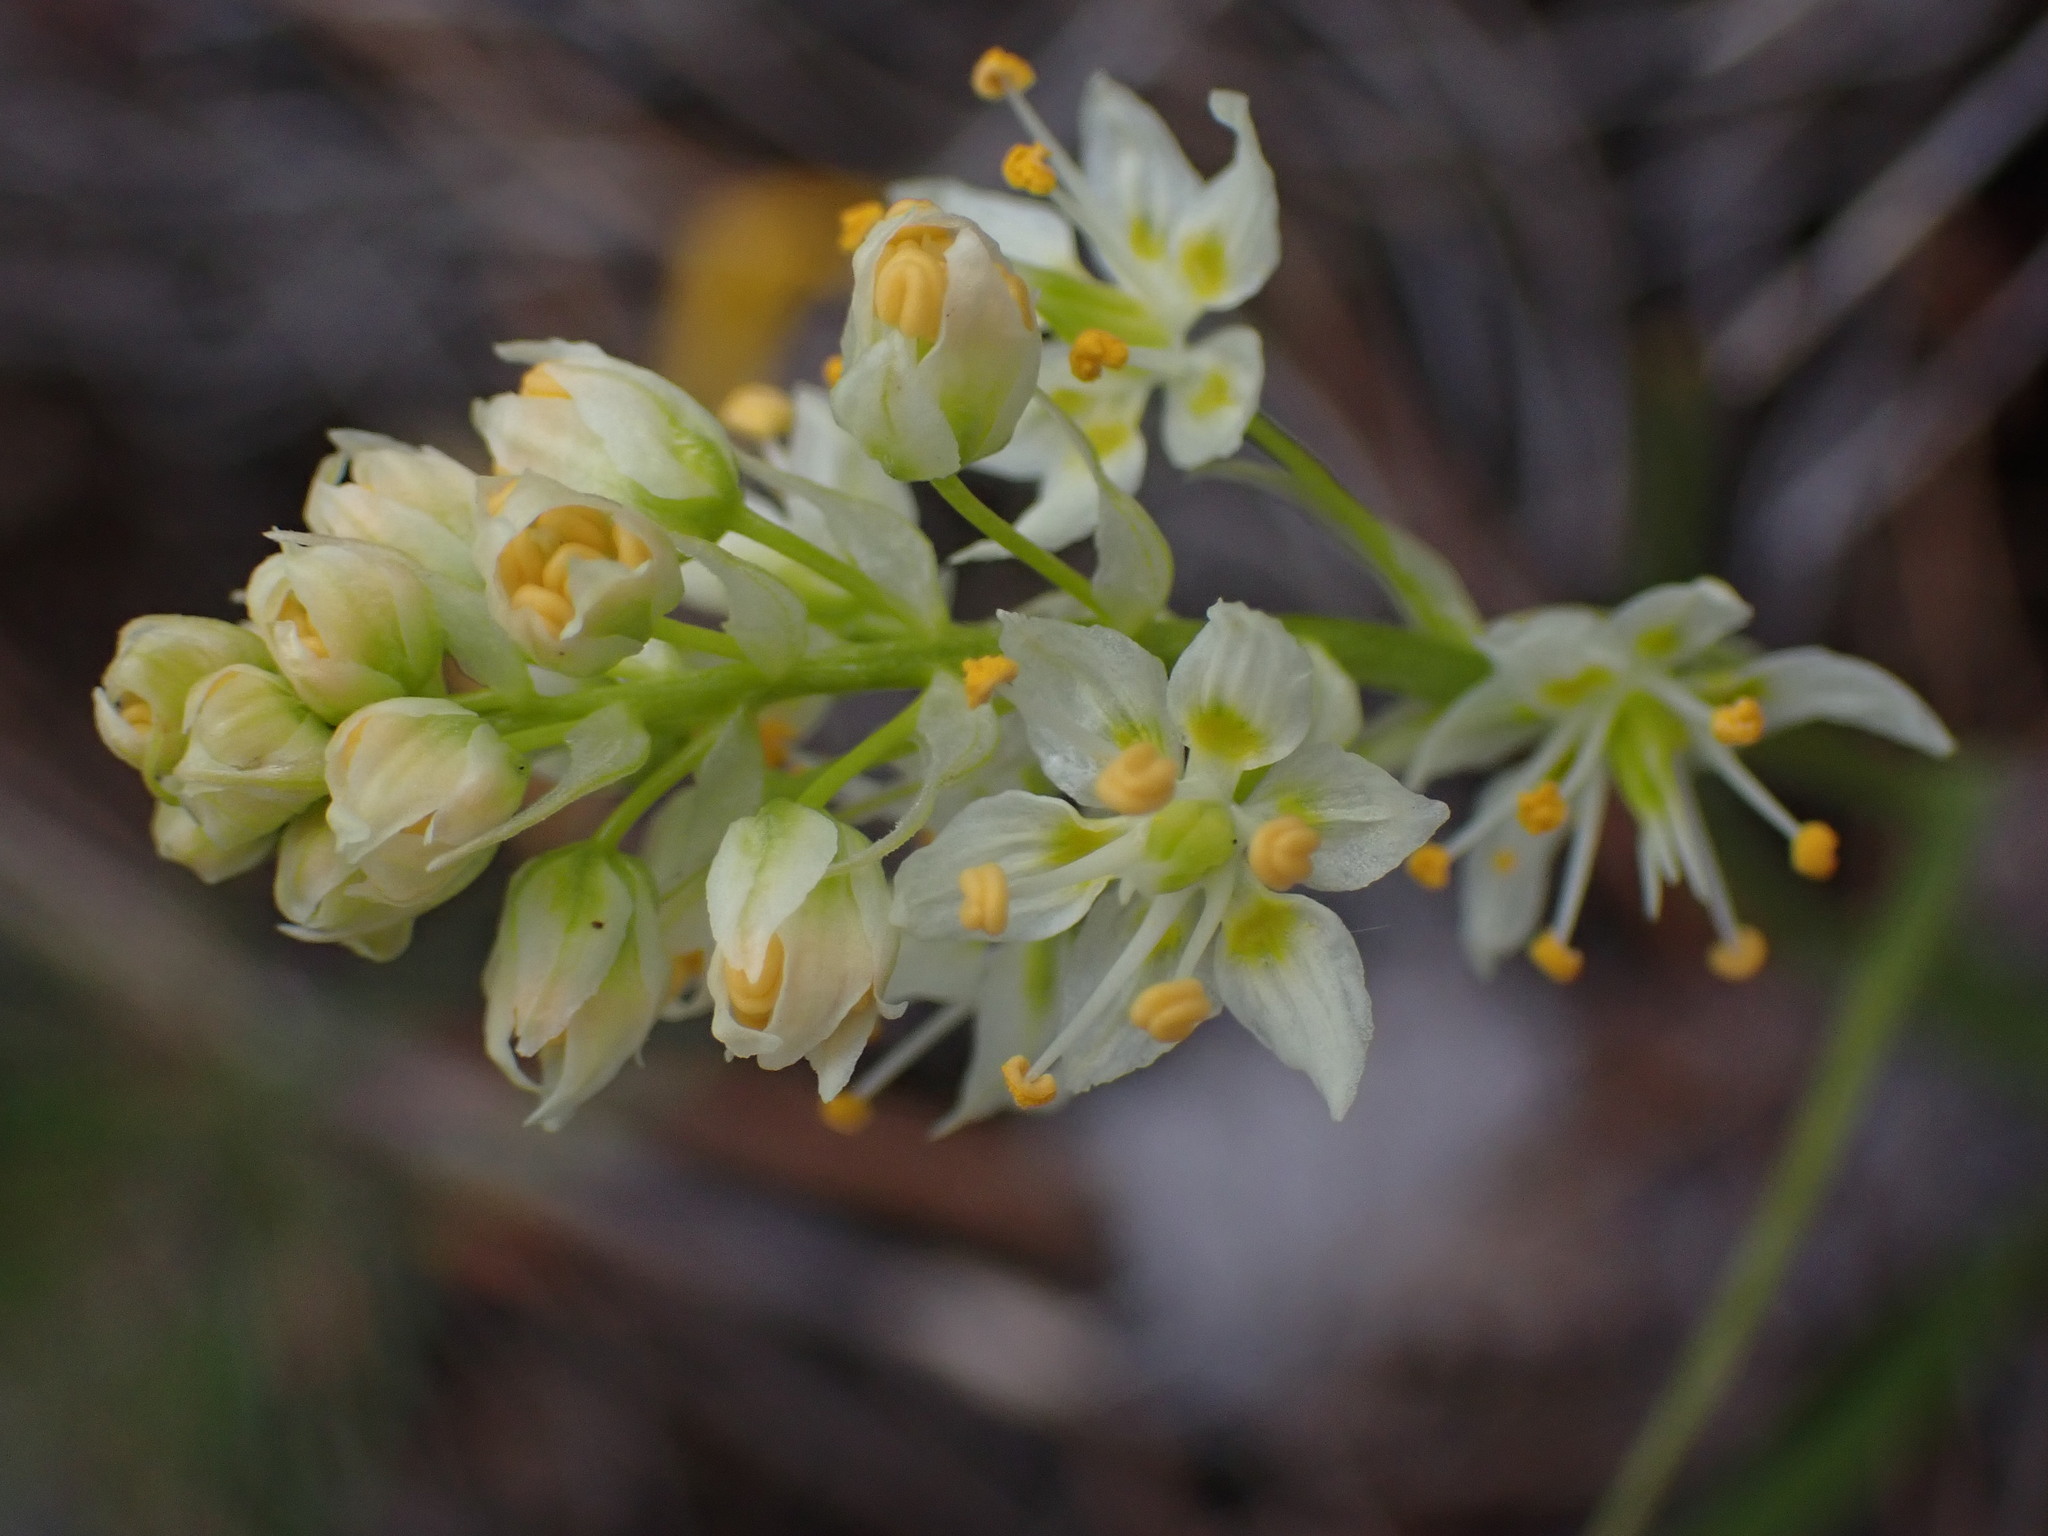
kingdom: Plantae
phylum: Tracheophyta
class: Liliopsida
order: Liliales
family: Melanthiaceae
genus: Toxicoscordion
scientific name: Toxicoscordion venenosum
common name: Meadow death camas
